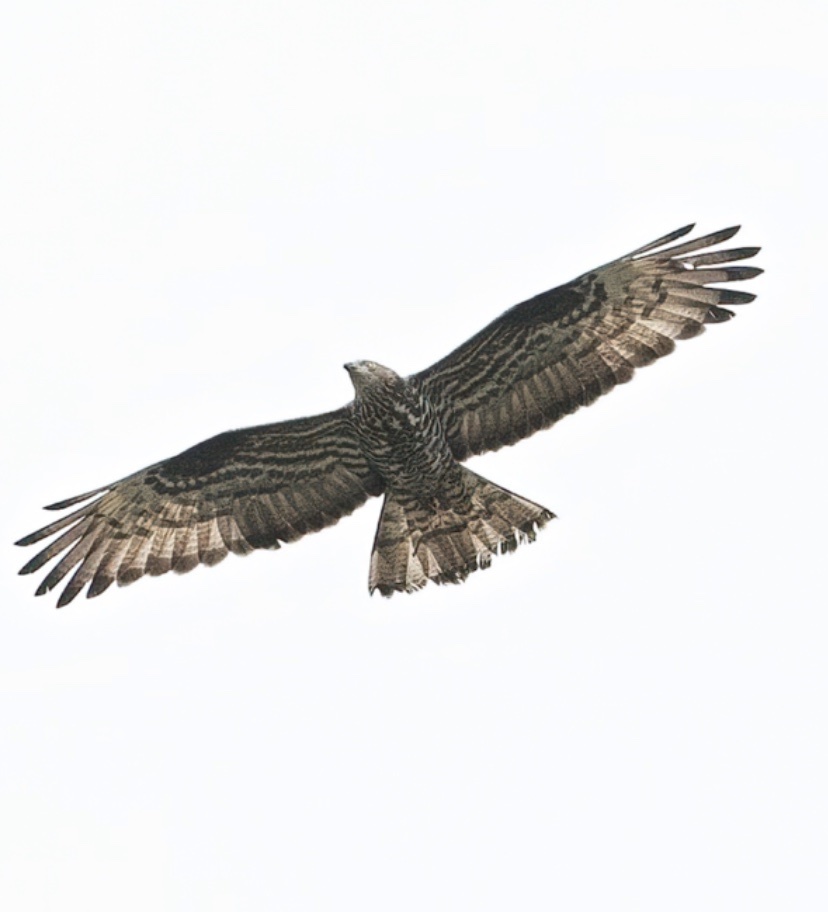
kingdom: Animalia
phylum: Chordata
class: Aves
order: Accipitriformes
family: Accipitridae
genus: Pernis
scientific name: Pernis apivorus
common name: European honey buzzard
